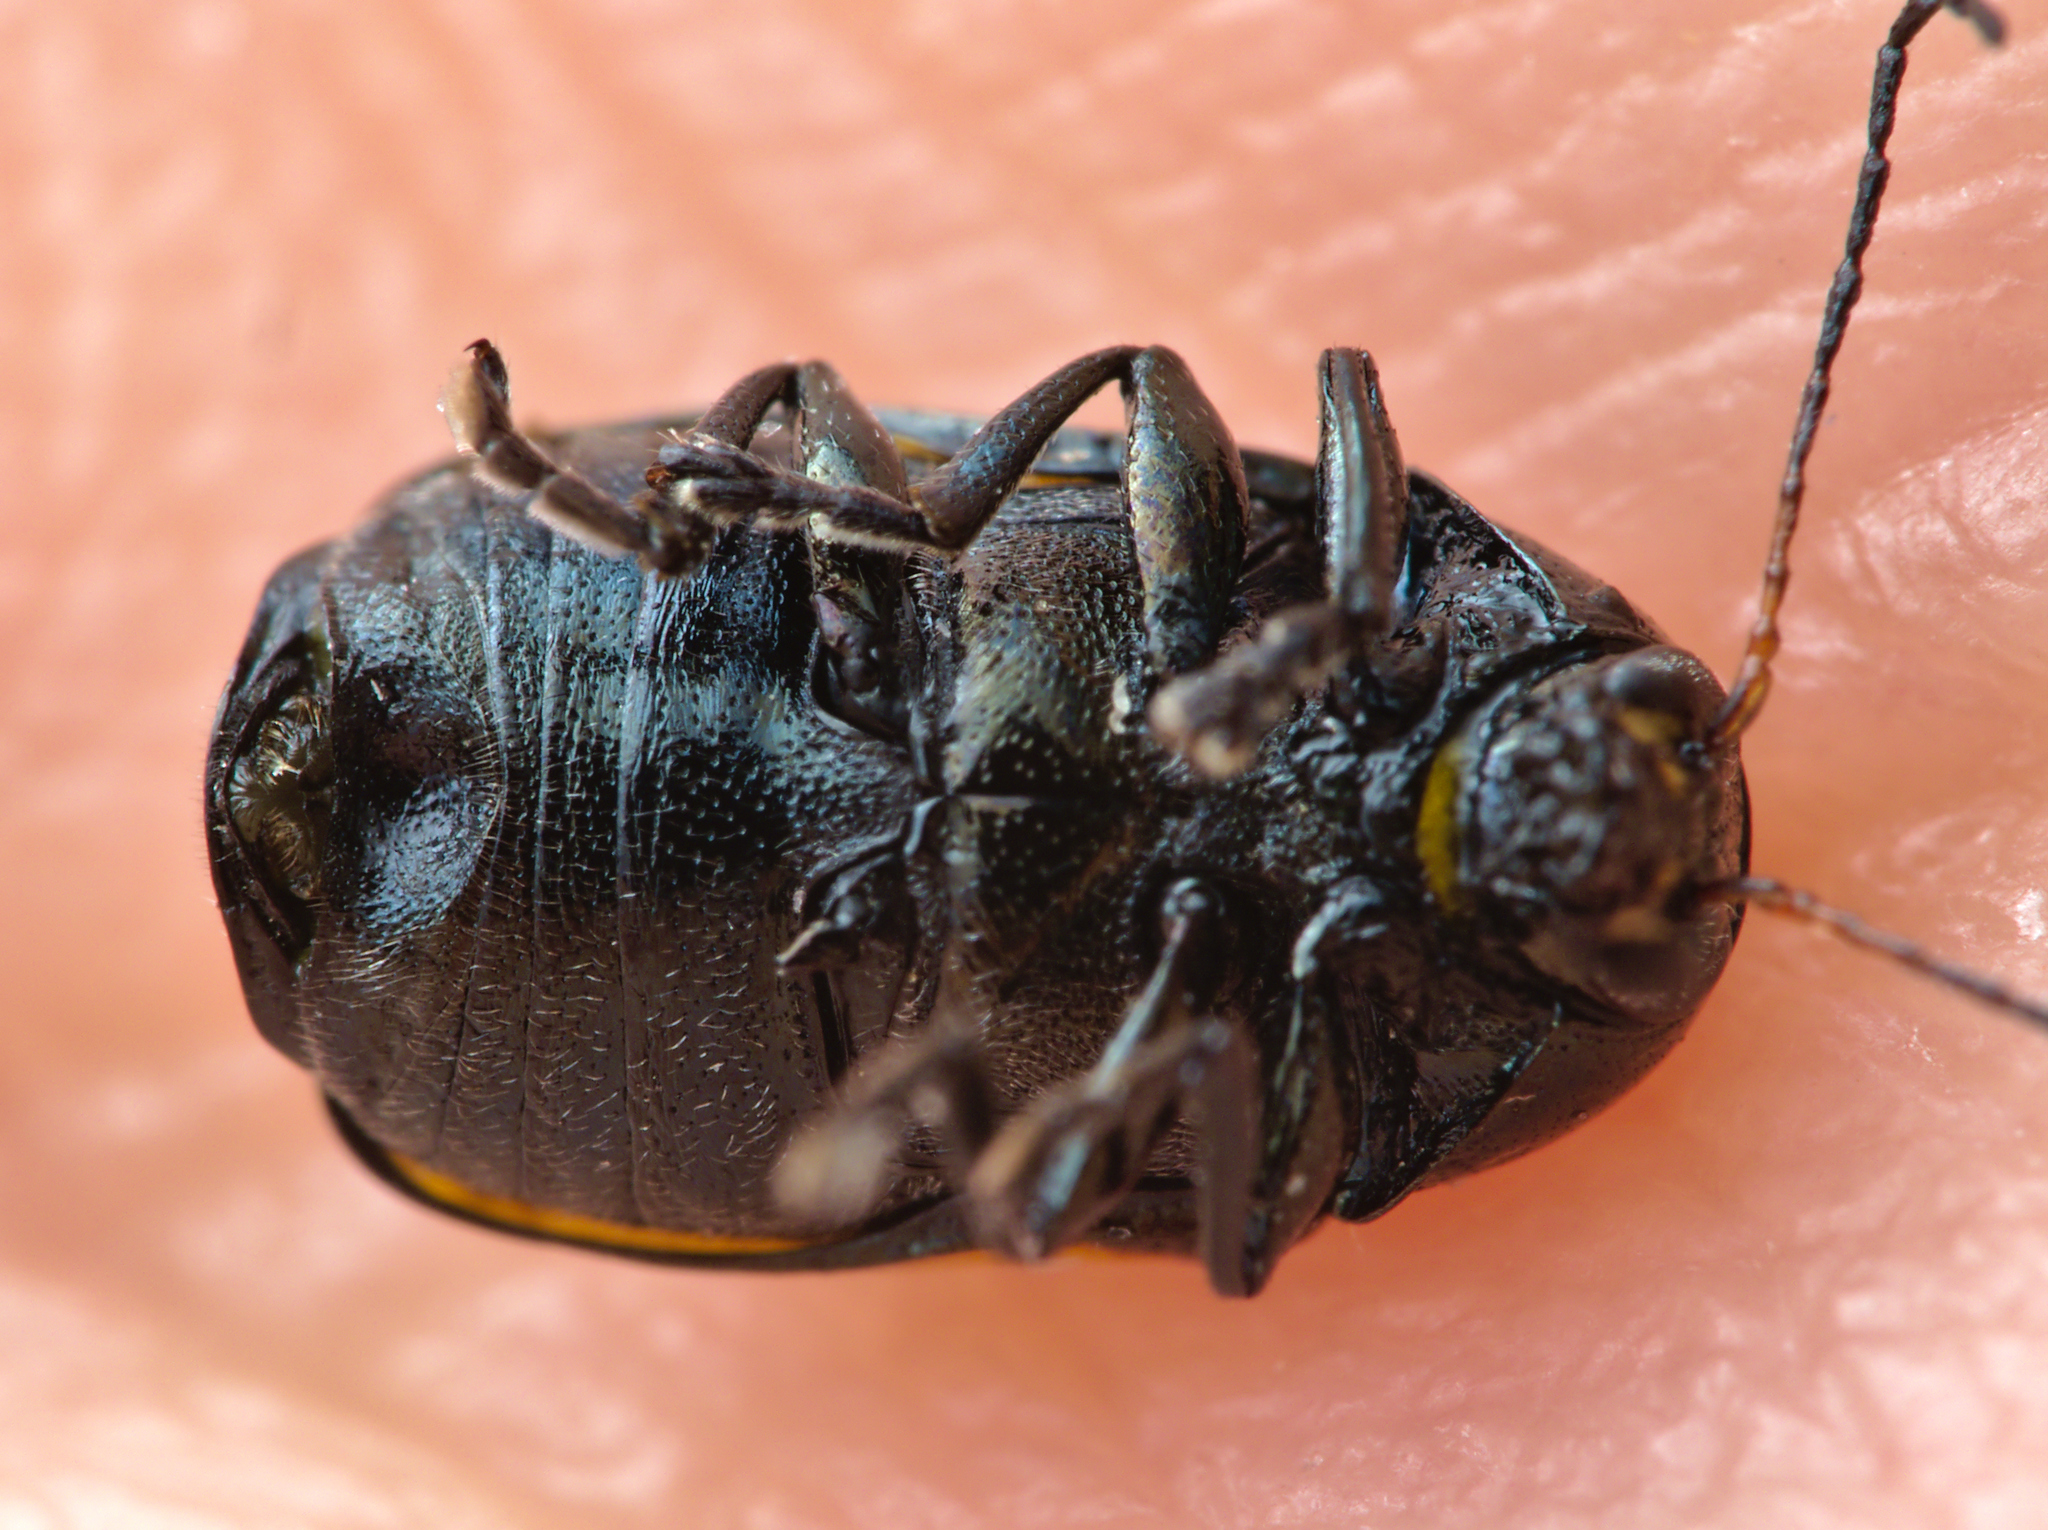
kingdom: Animalia
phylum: Arthropoda
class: Insecta
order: Coleoptera
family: Chrysomelidae
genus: Cryptocephalus
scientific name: Cryptocephalus marginatus
